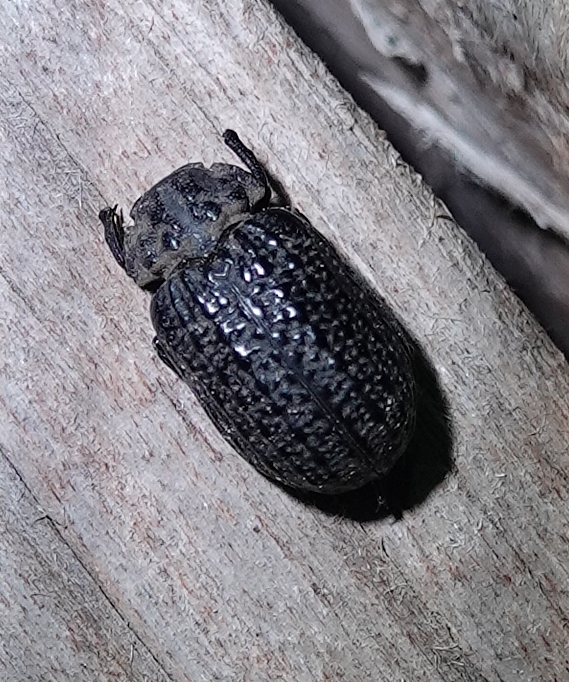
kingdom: Animalia
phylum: Arthropoda
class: Insecta
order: Coleoptera
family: Trogidae
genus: Omorgus
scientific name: Omorgus punctatus
